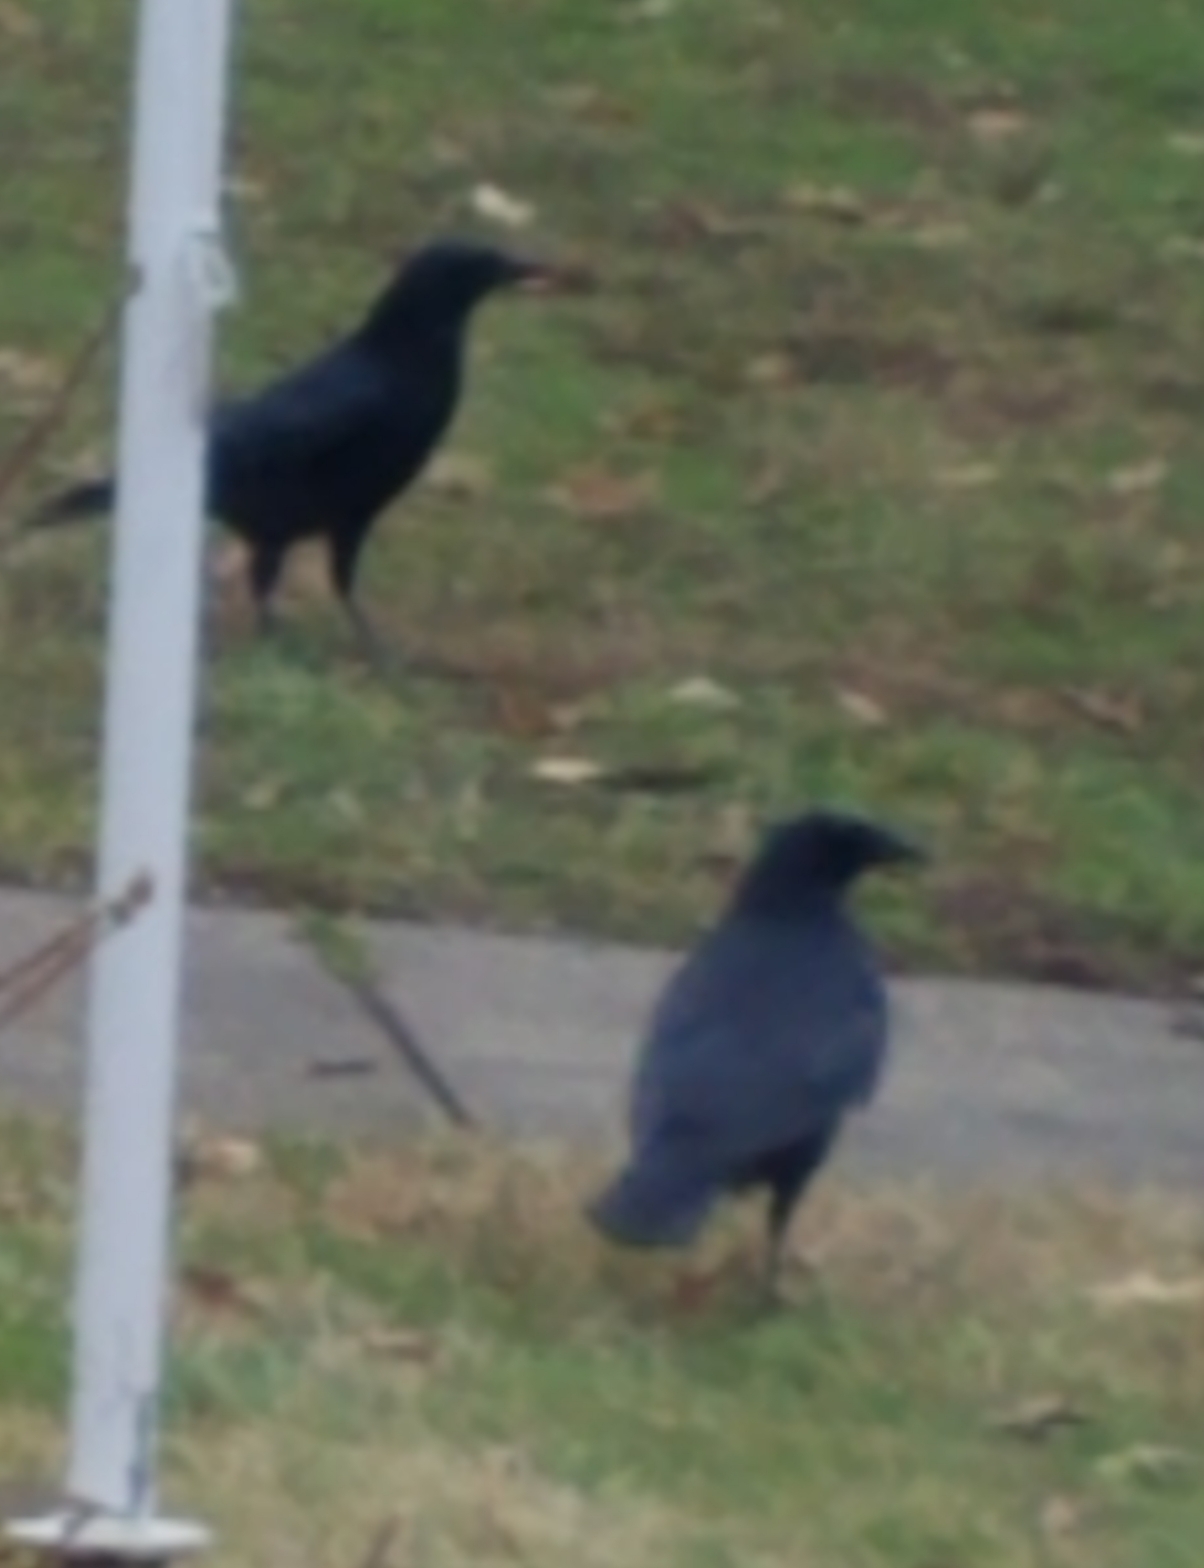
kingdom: Animalia
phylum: Chordata
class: Aves
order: Passeriformes
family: Corvidae
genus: Corvus
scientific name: Corvus brachyrhynchos
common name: American crow
